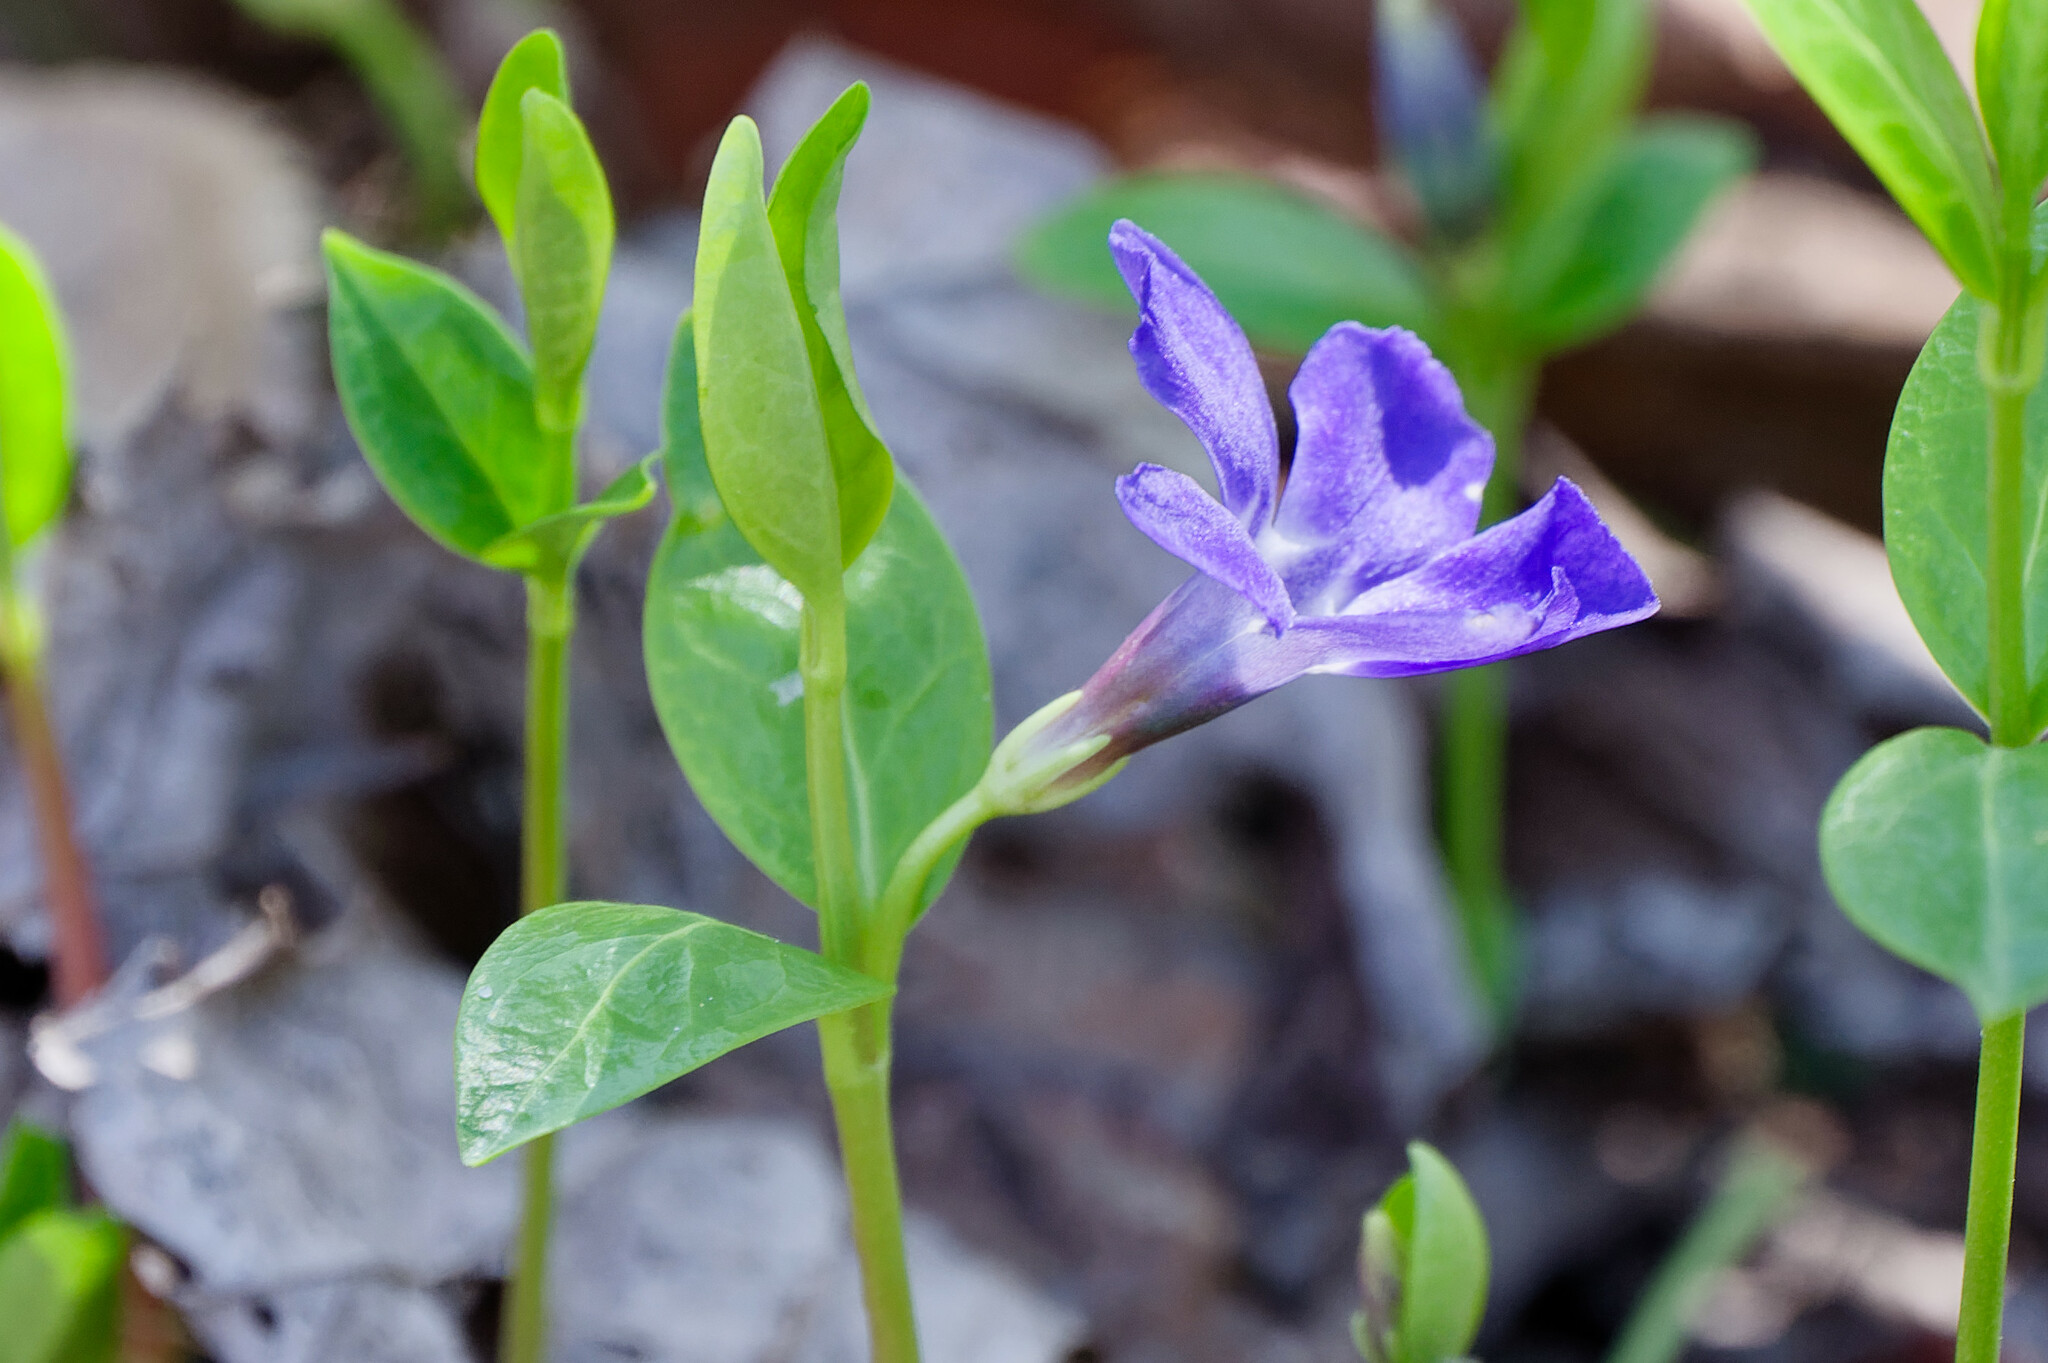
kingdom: Plantae
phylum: Tracheophyta
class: Magnoliopsida
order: Gentianales
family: Apocynaceae
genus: Vinca
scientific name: Vinca minor
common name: Lesser periwinkle
